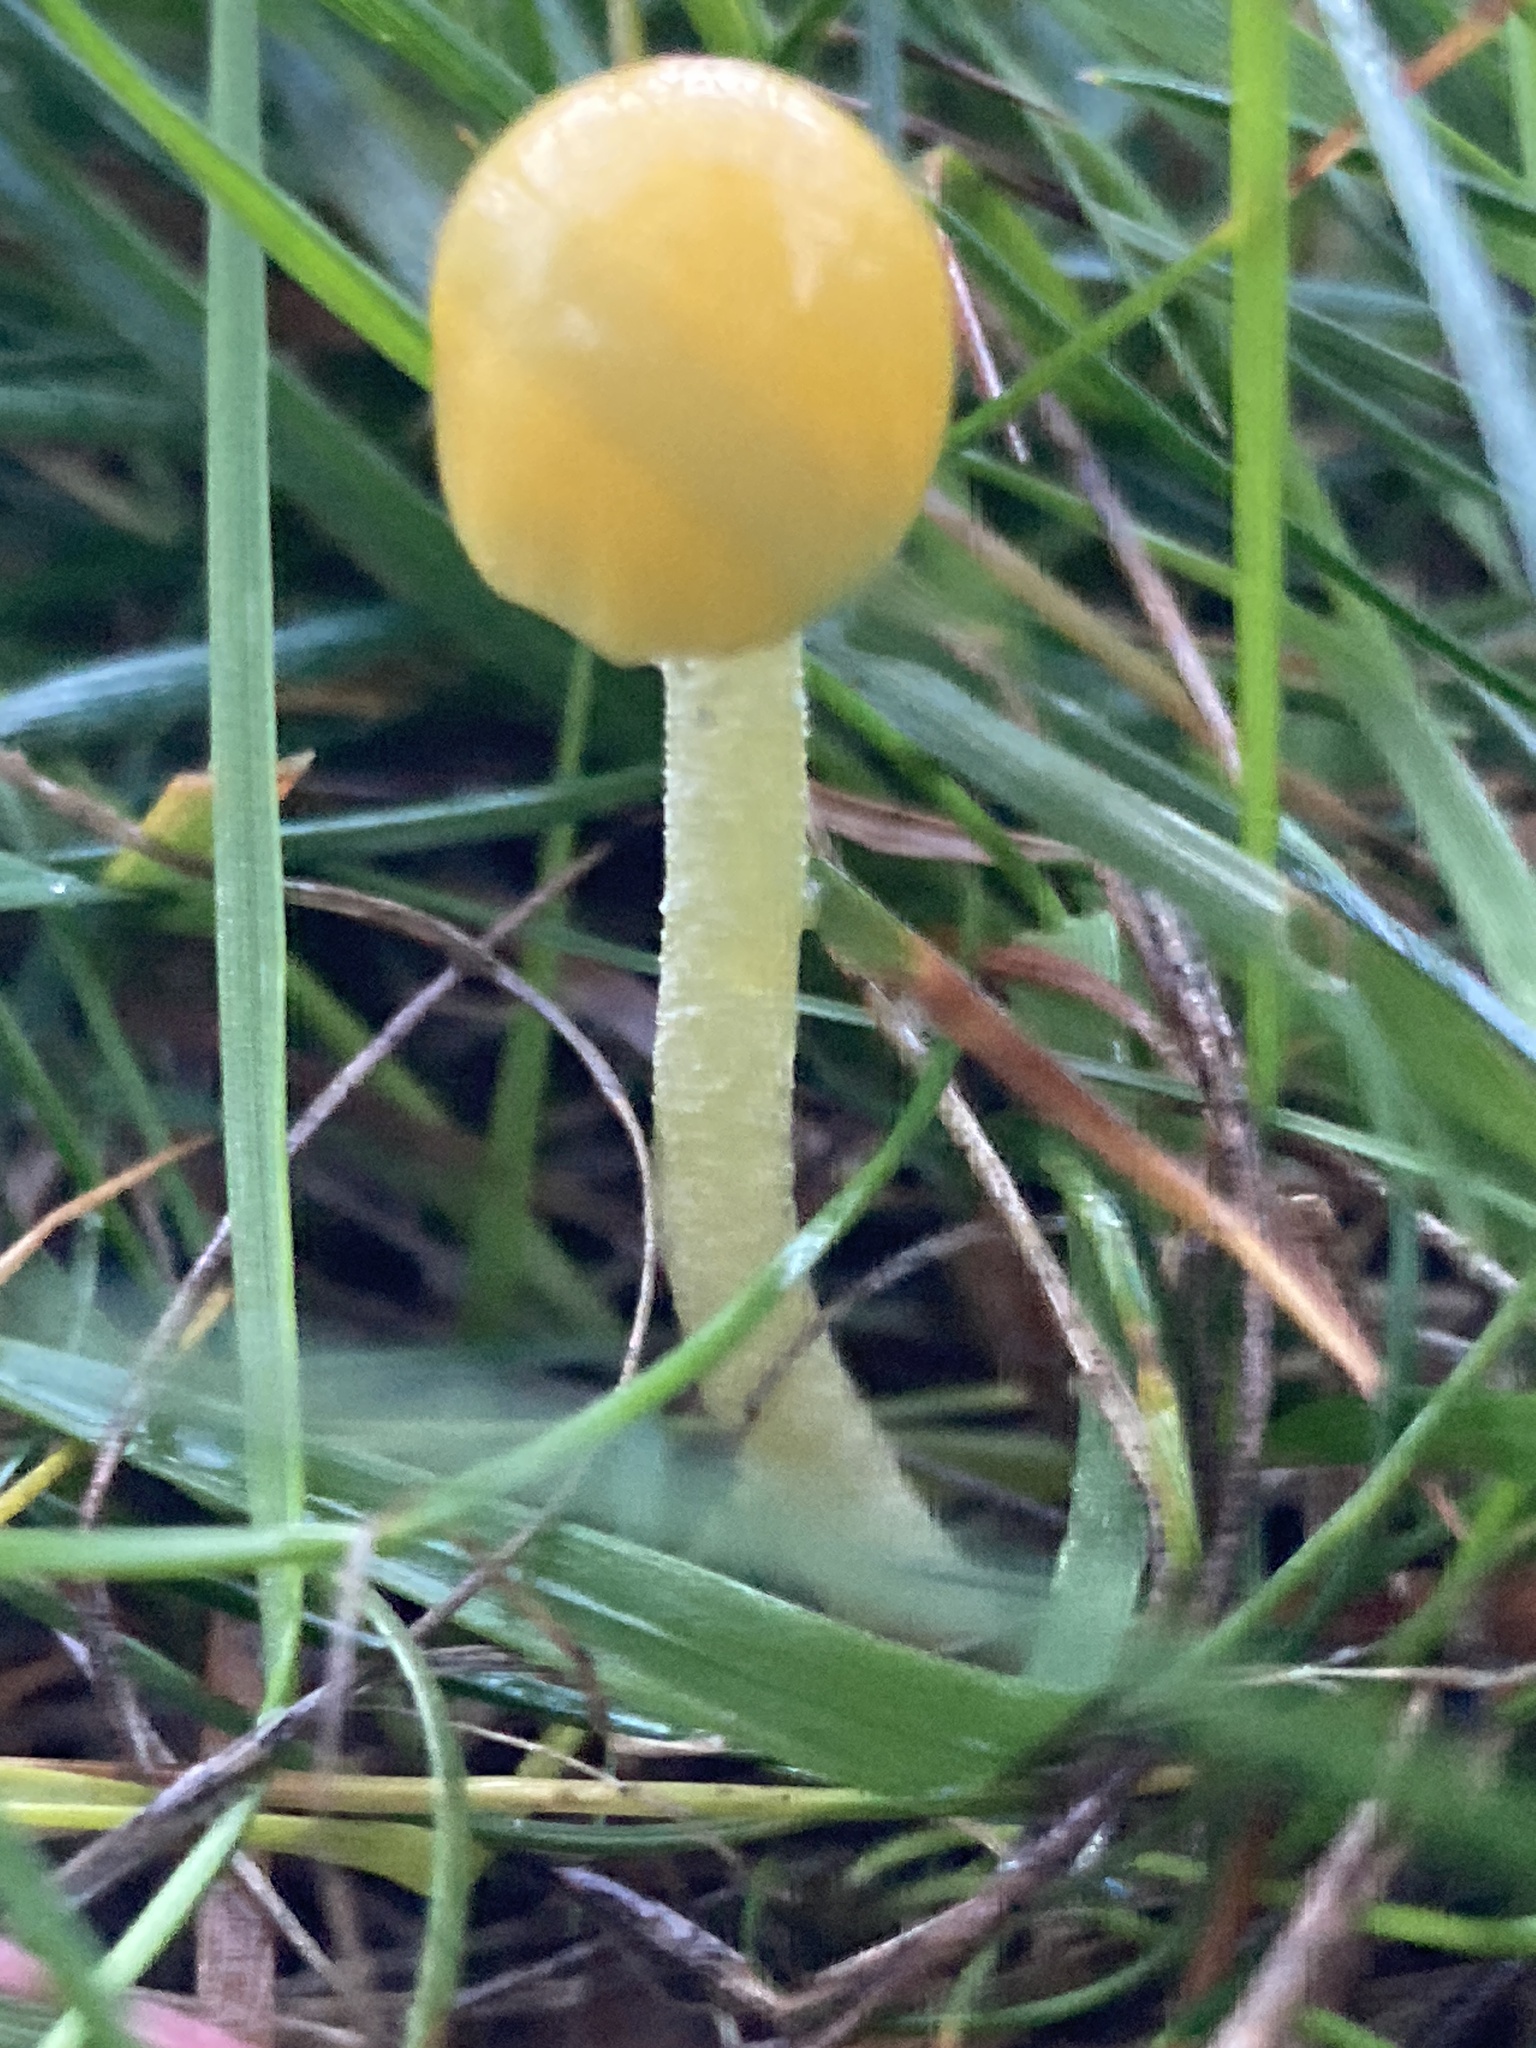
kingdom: Fungi
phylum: Basidiomycota
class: Agaricomycetes
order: Agaricales
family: Bolbitiaceae
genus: Bolbitius
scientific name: Bolbitius titubans
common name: Yellow fieldcap
